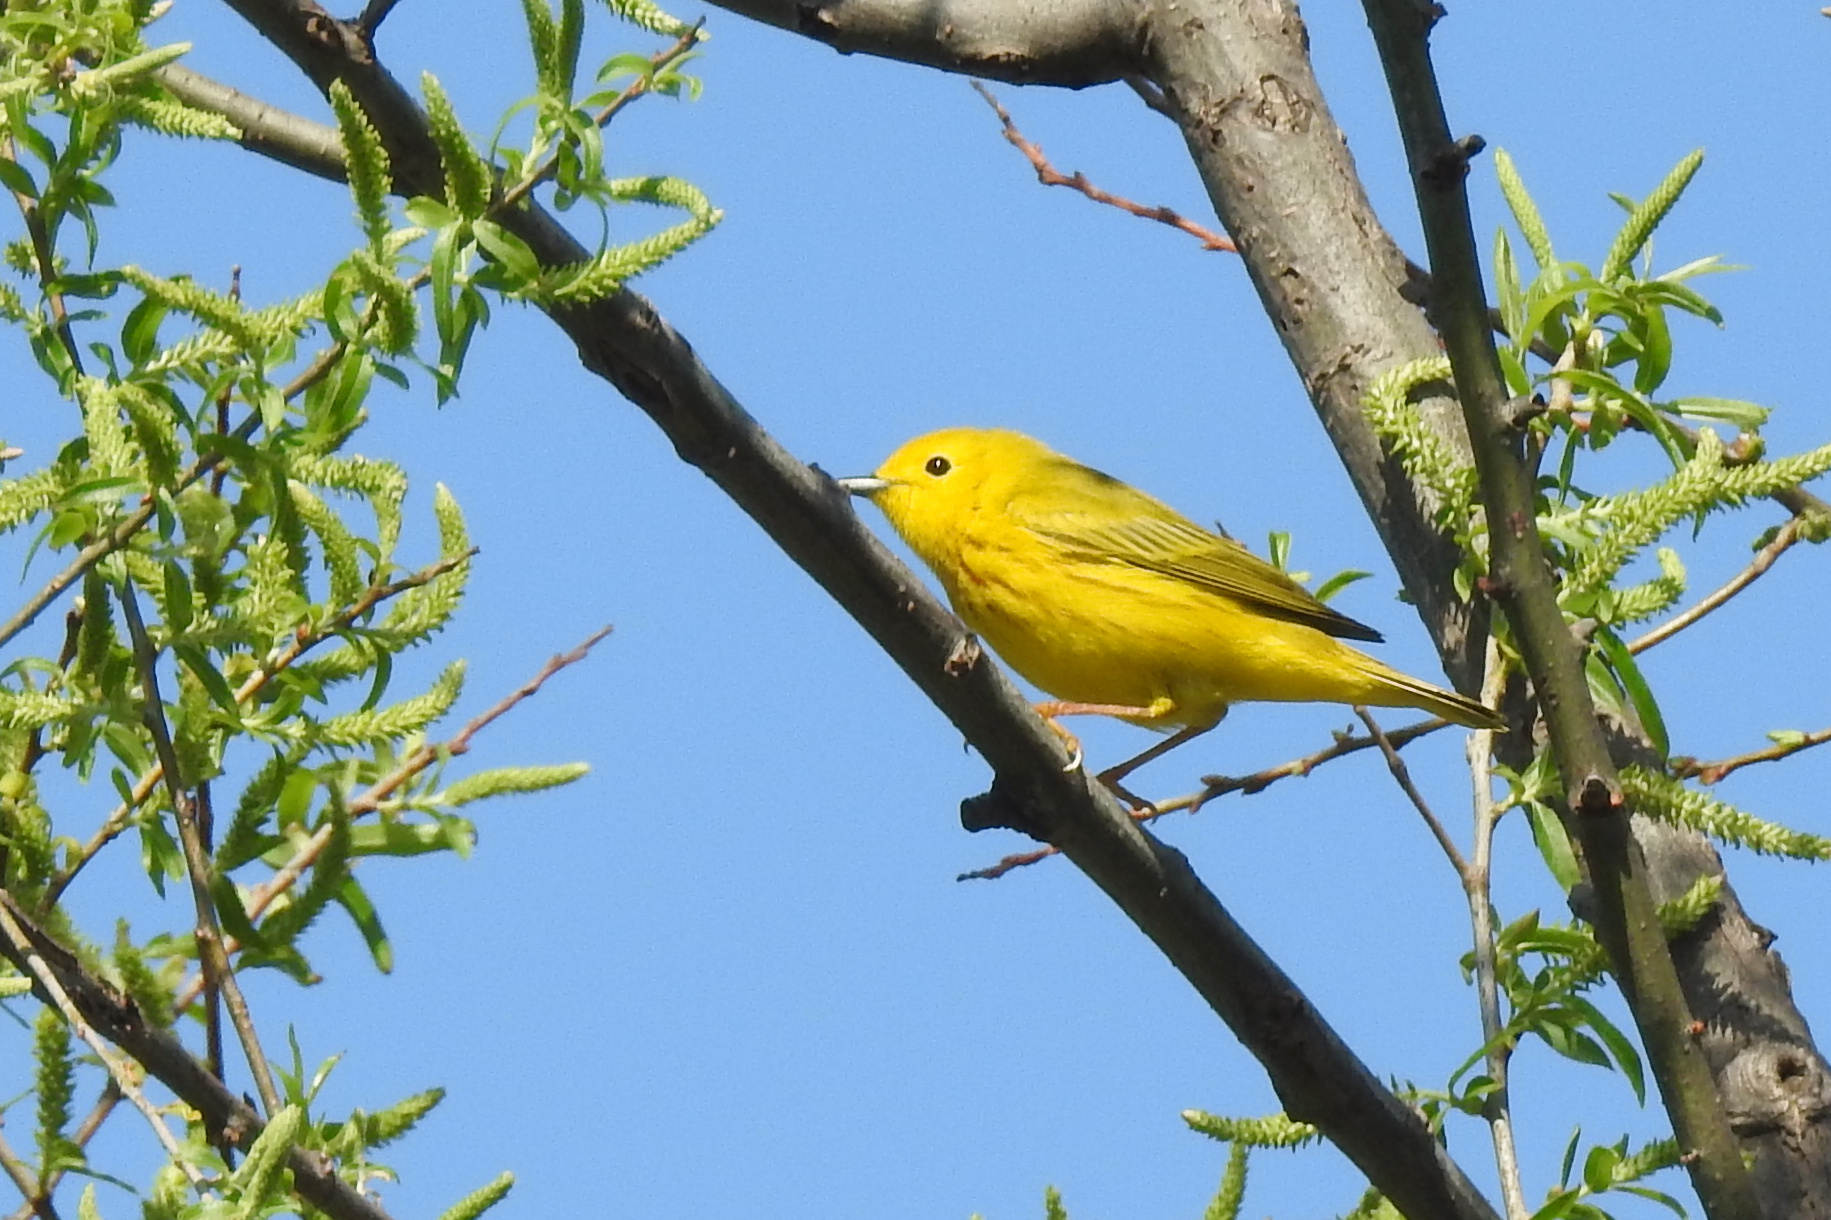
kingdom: Animalia
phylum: Chordata
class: Aves
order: Passeriformes
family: Parulidae
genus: Setophaga
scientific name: Setophaga petechia
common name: Yellow warbler
